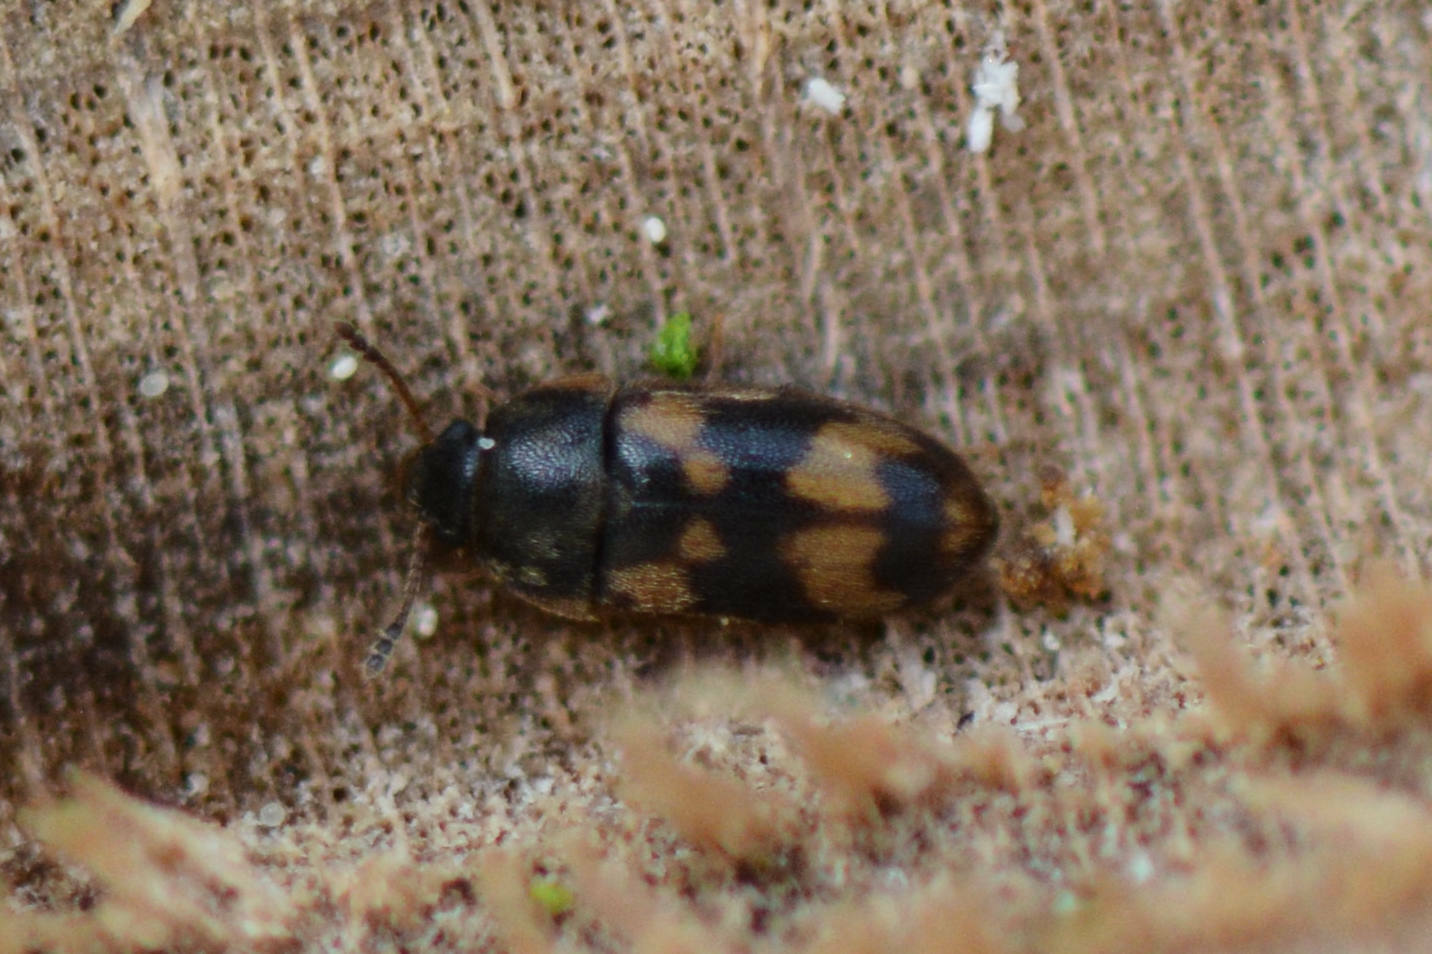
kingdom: Animalia
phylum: Arthropoda
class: Insecta
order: Coleoptera
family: Mycetophagidae
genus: Litargus
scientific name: Litargus connexus
